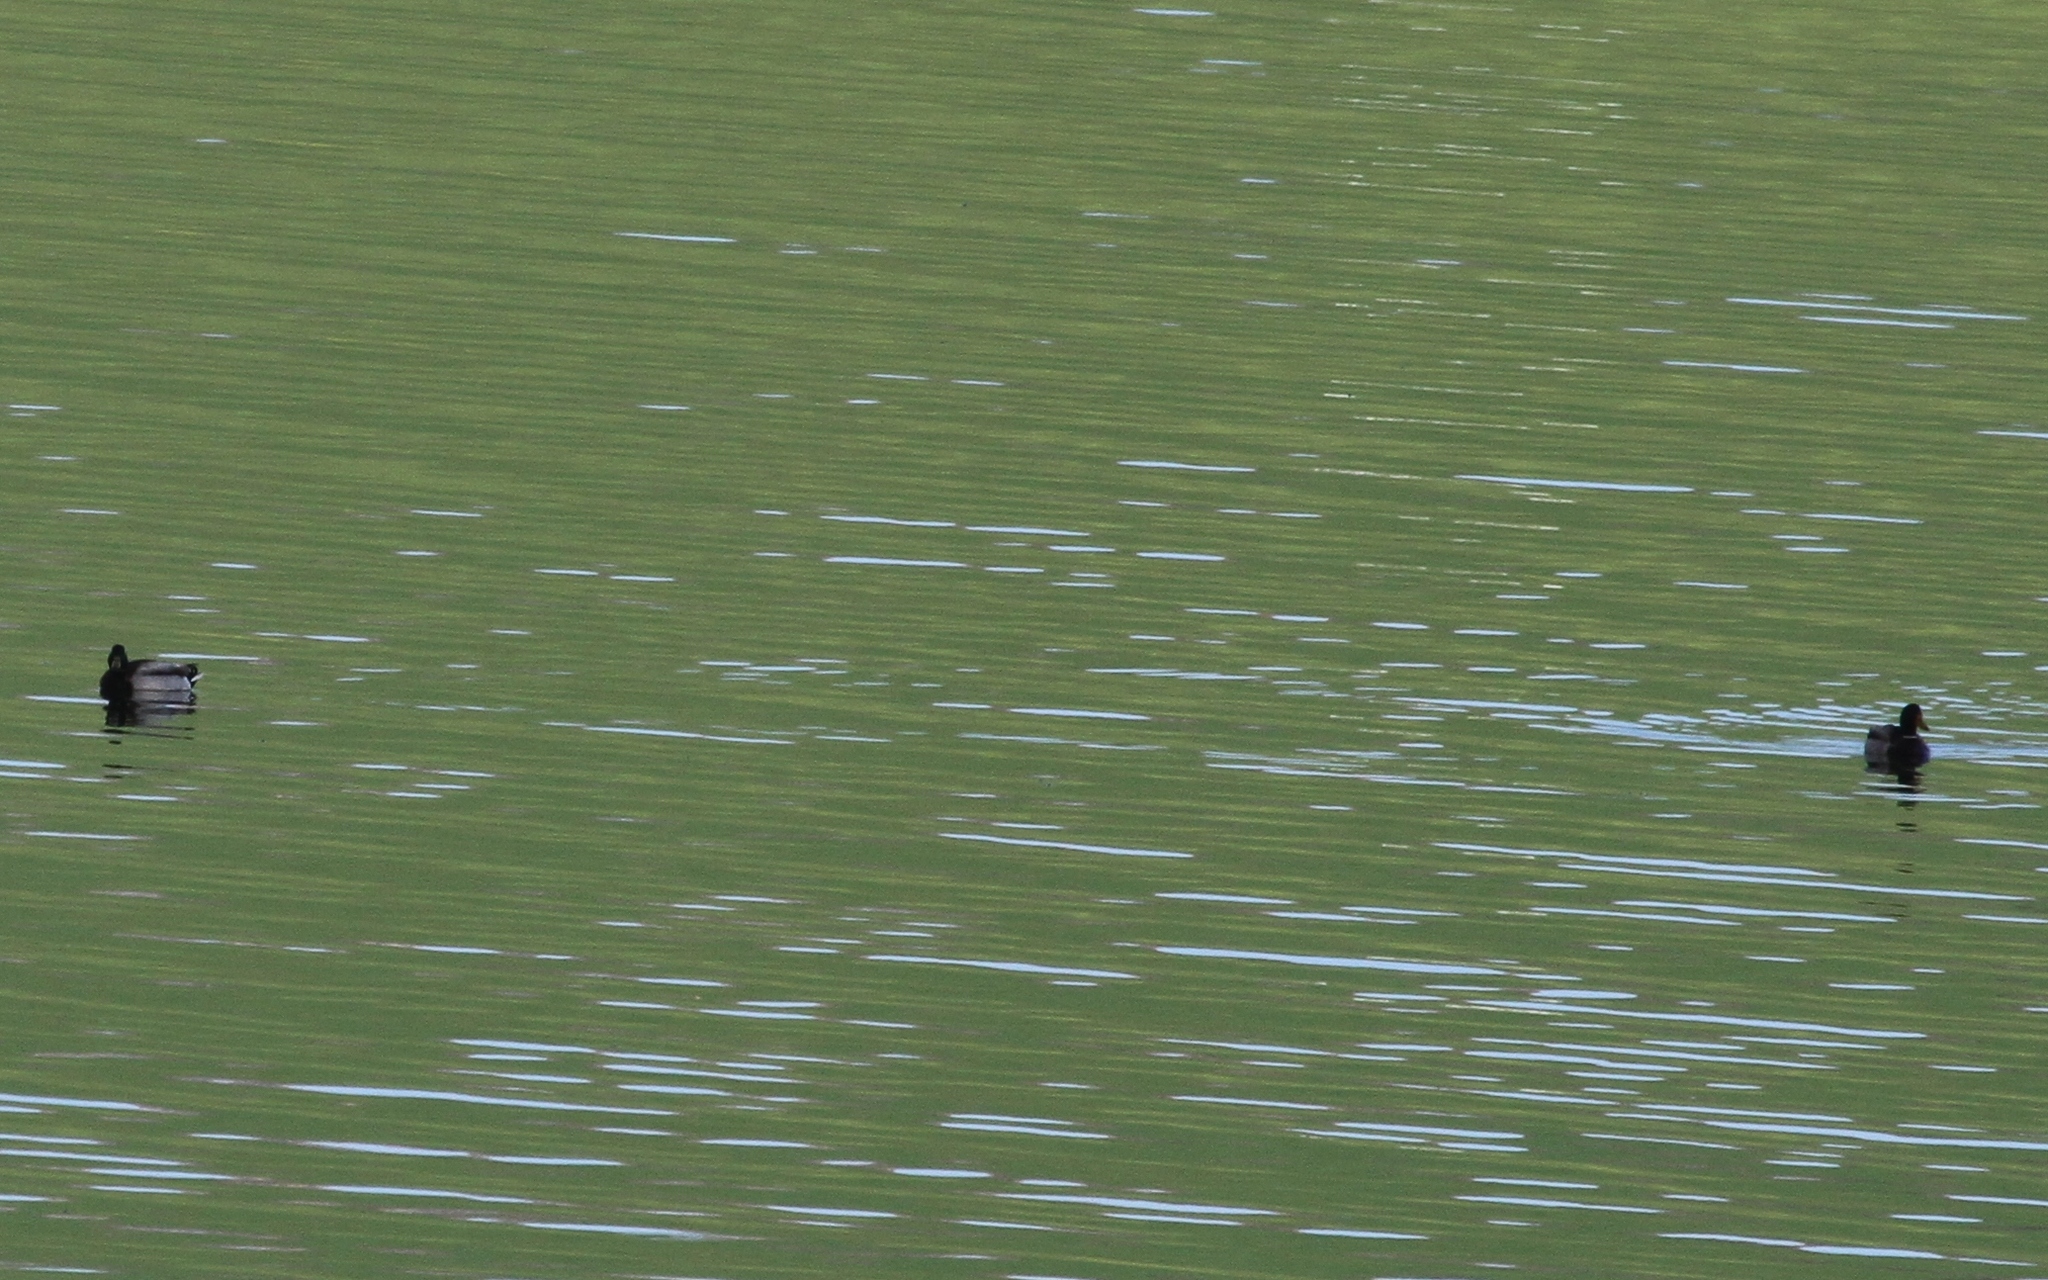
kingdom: Animalia
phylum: Chordata
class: Aves
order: Anseriformes
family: Anatidae
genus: Anas
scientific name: Anas platyrhynchos
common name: Mallard
